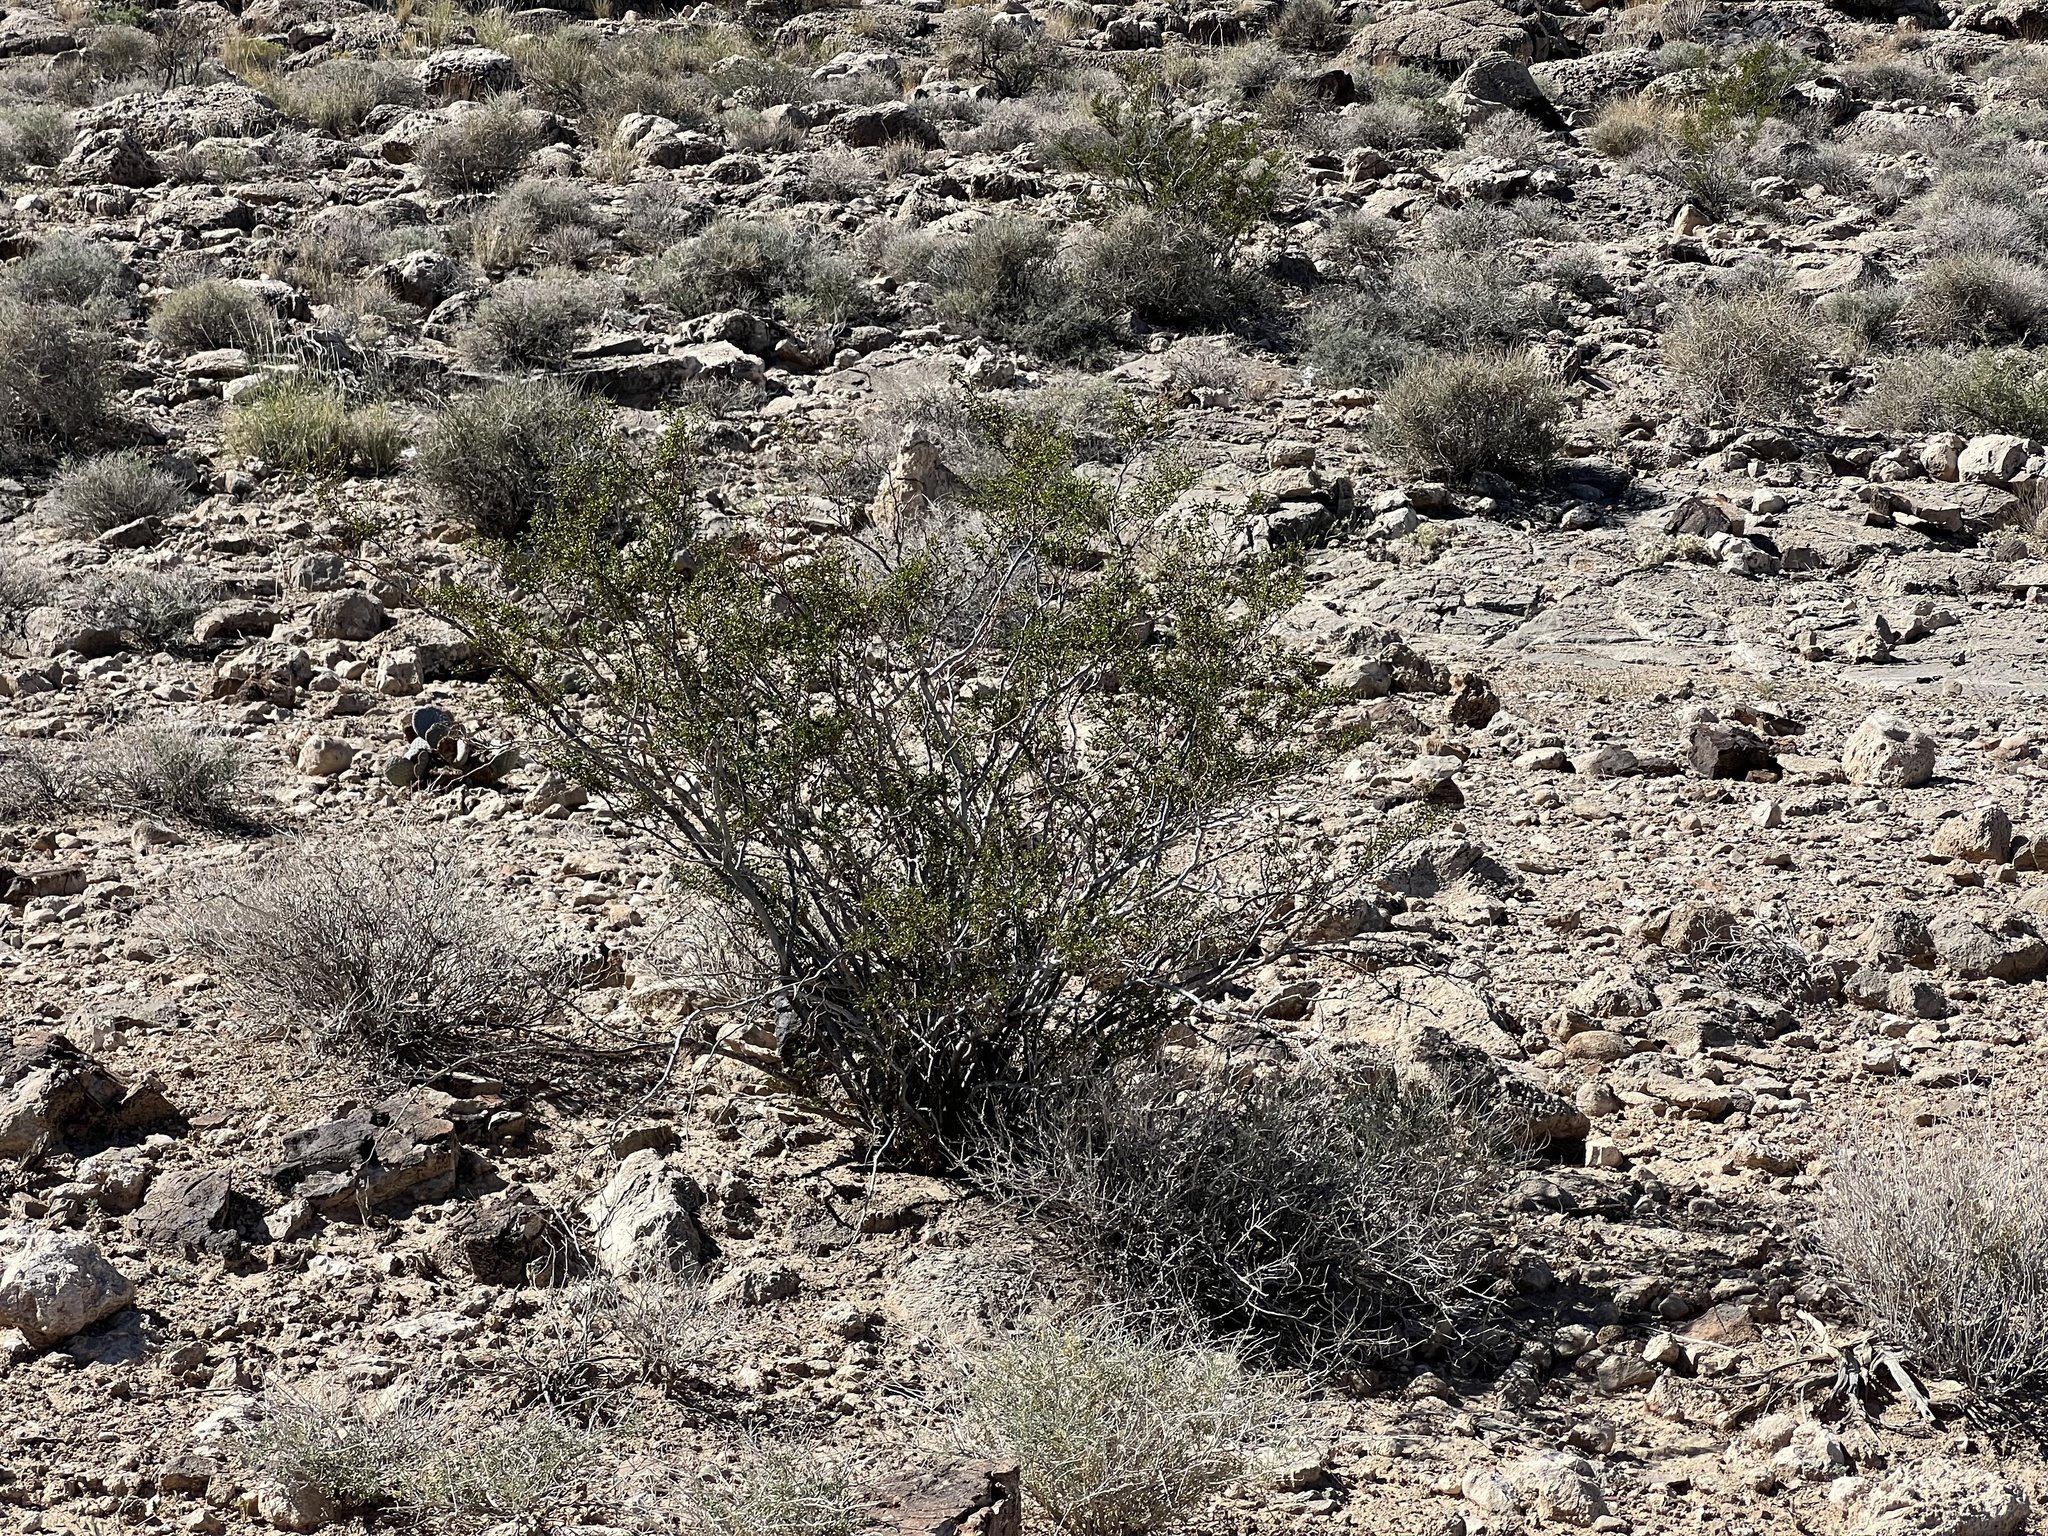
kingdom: Plantae
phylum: Tracheophyta
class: Magnoliopsida
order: Zygophyllales
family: Zygophyllaceae
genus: Larrea
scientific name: Larrea tridentata
